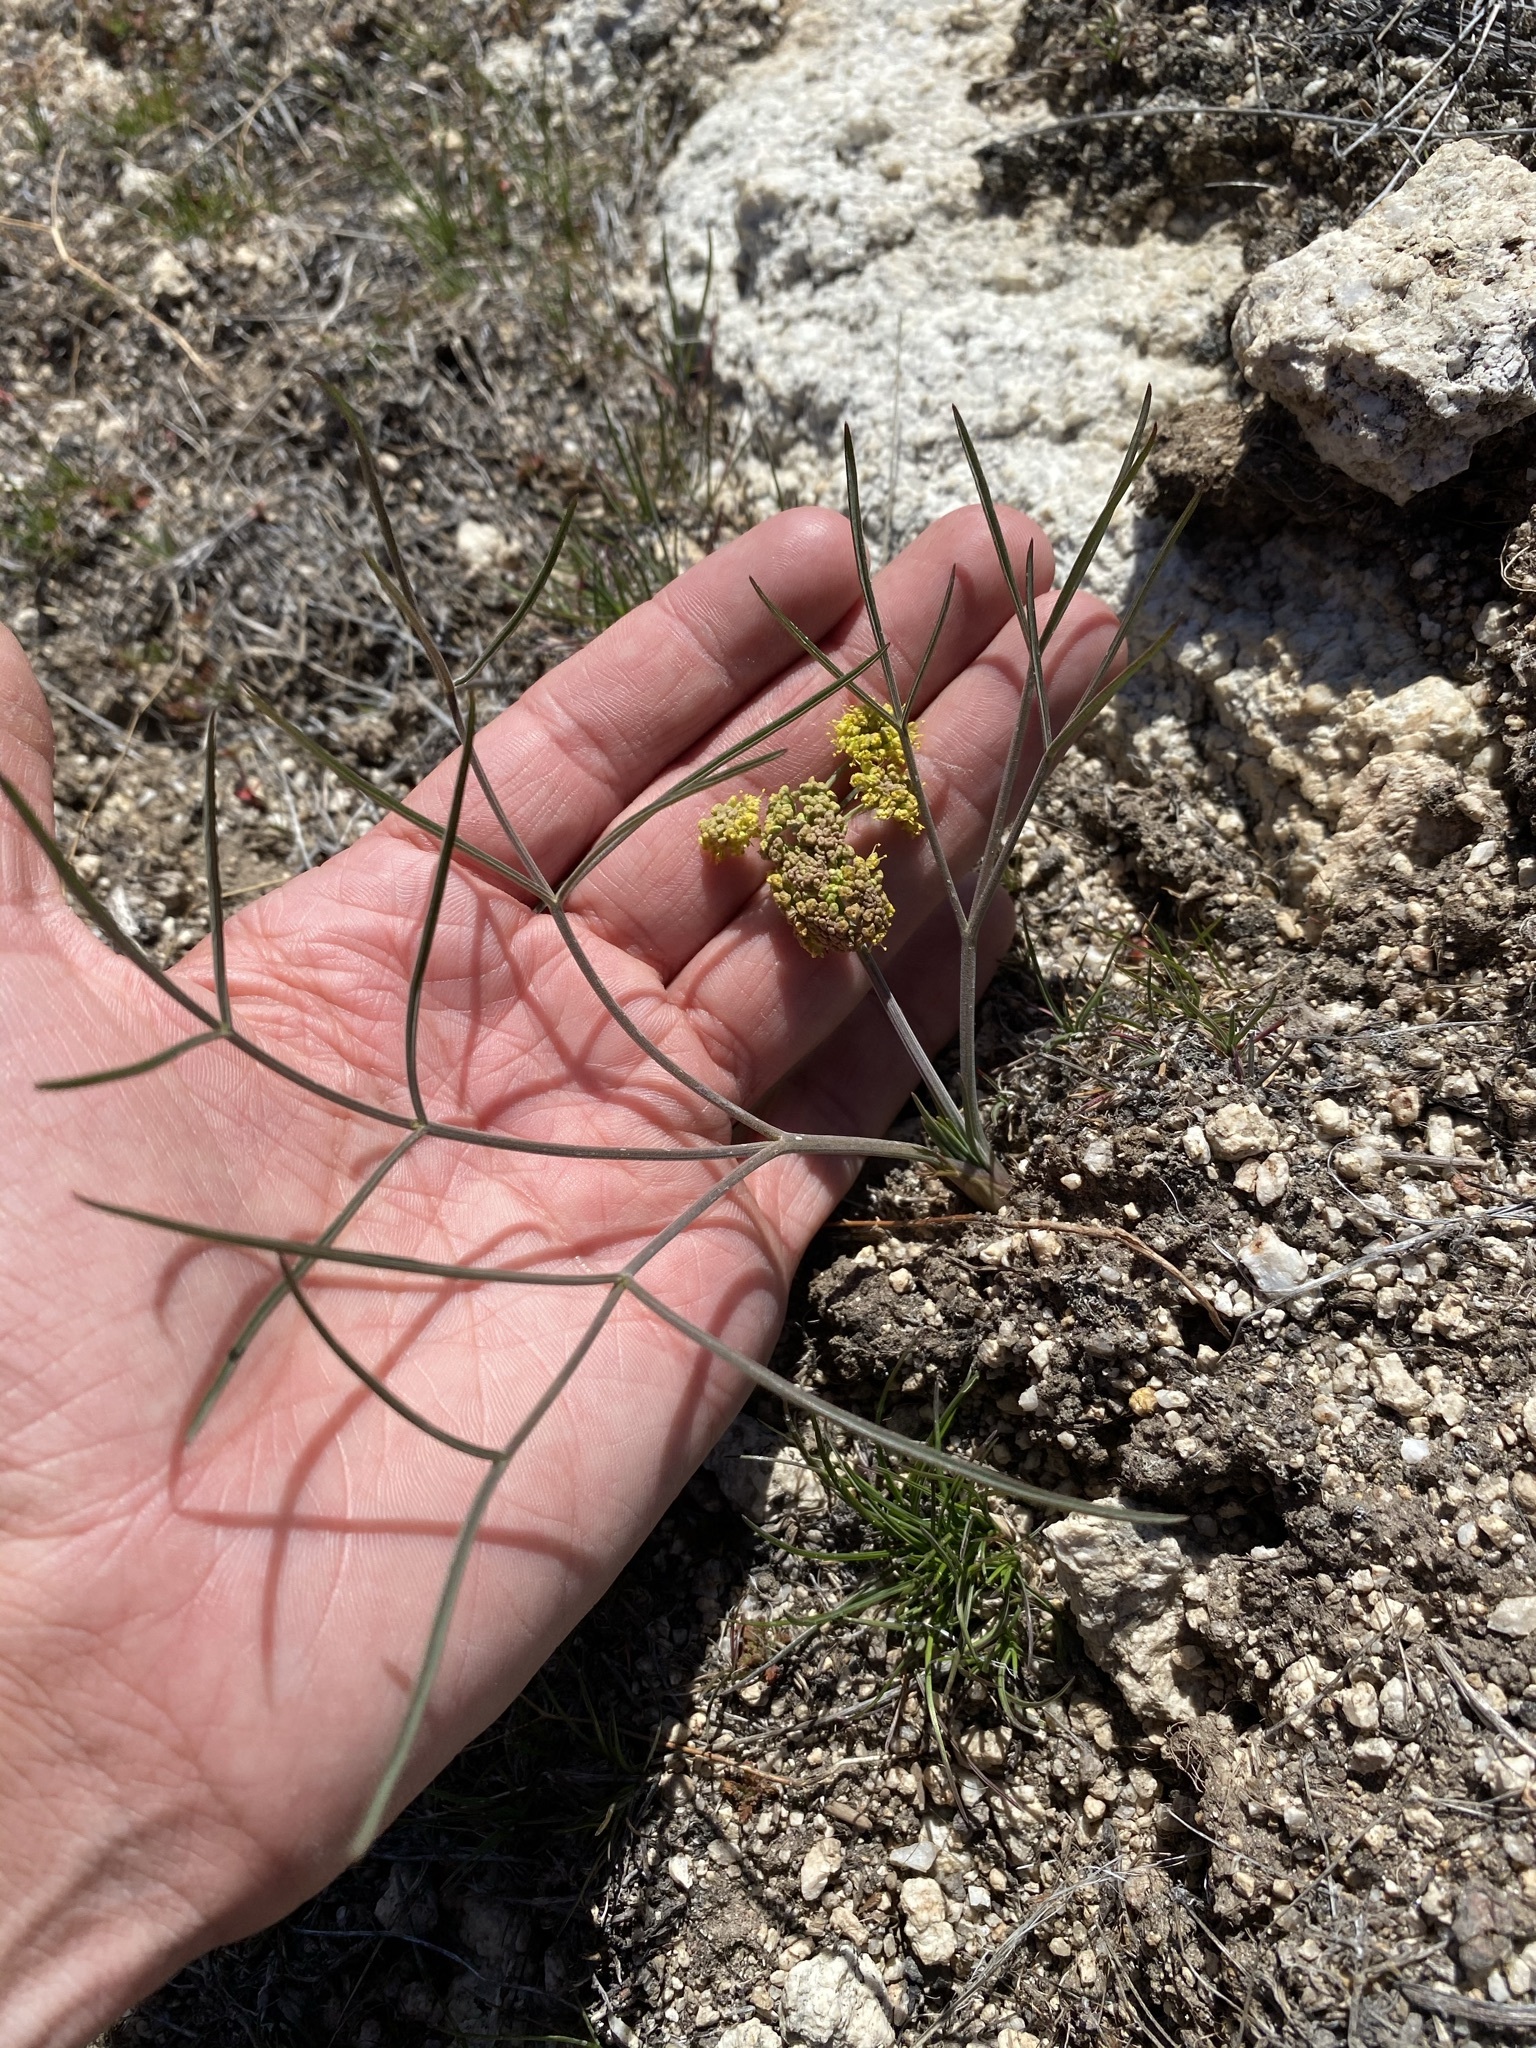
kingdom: Plantae
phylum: Tracheophyta
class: Magnoliopsida
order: Apiales
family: Apiaceae
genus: Lomatium
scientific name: Lomatium simplex
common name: Great basin biscuitroot
